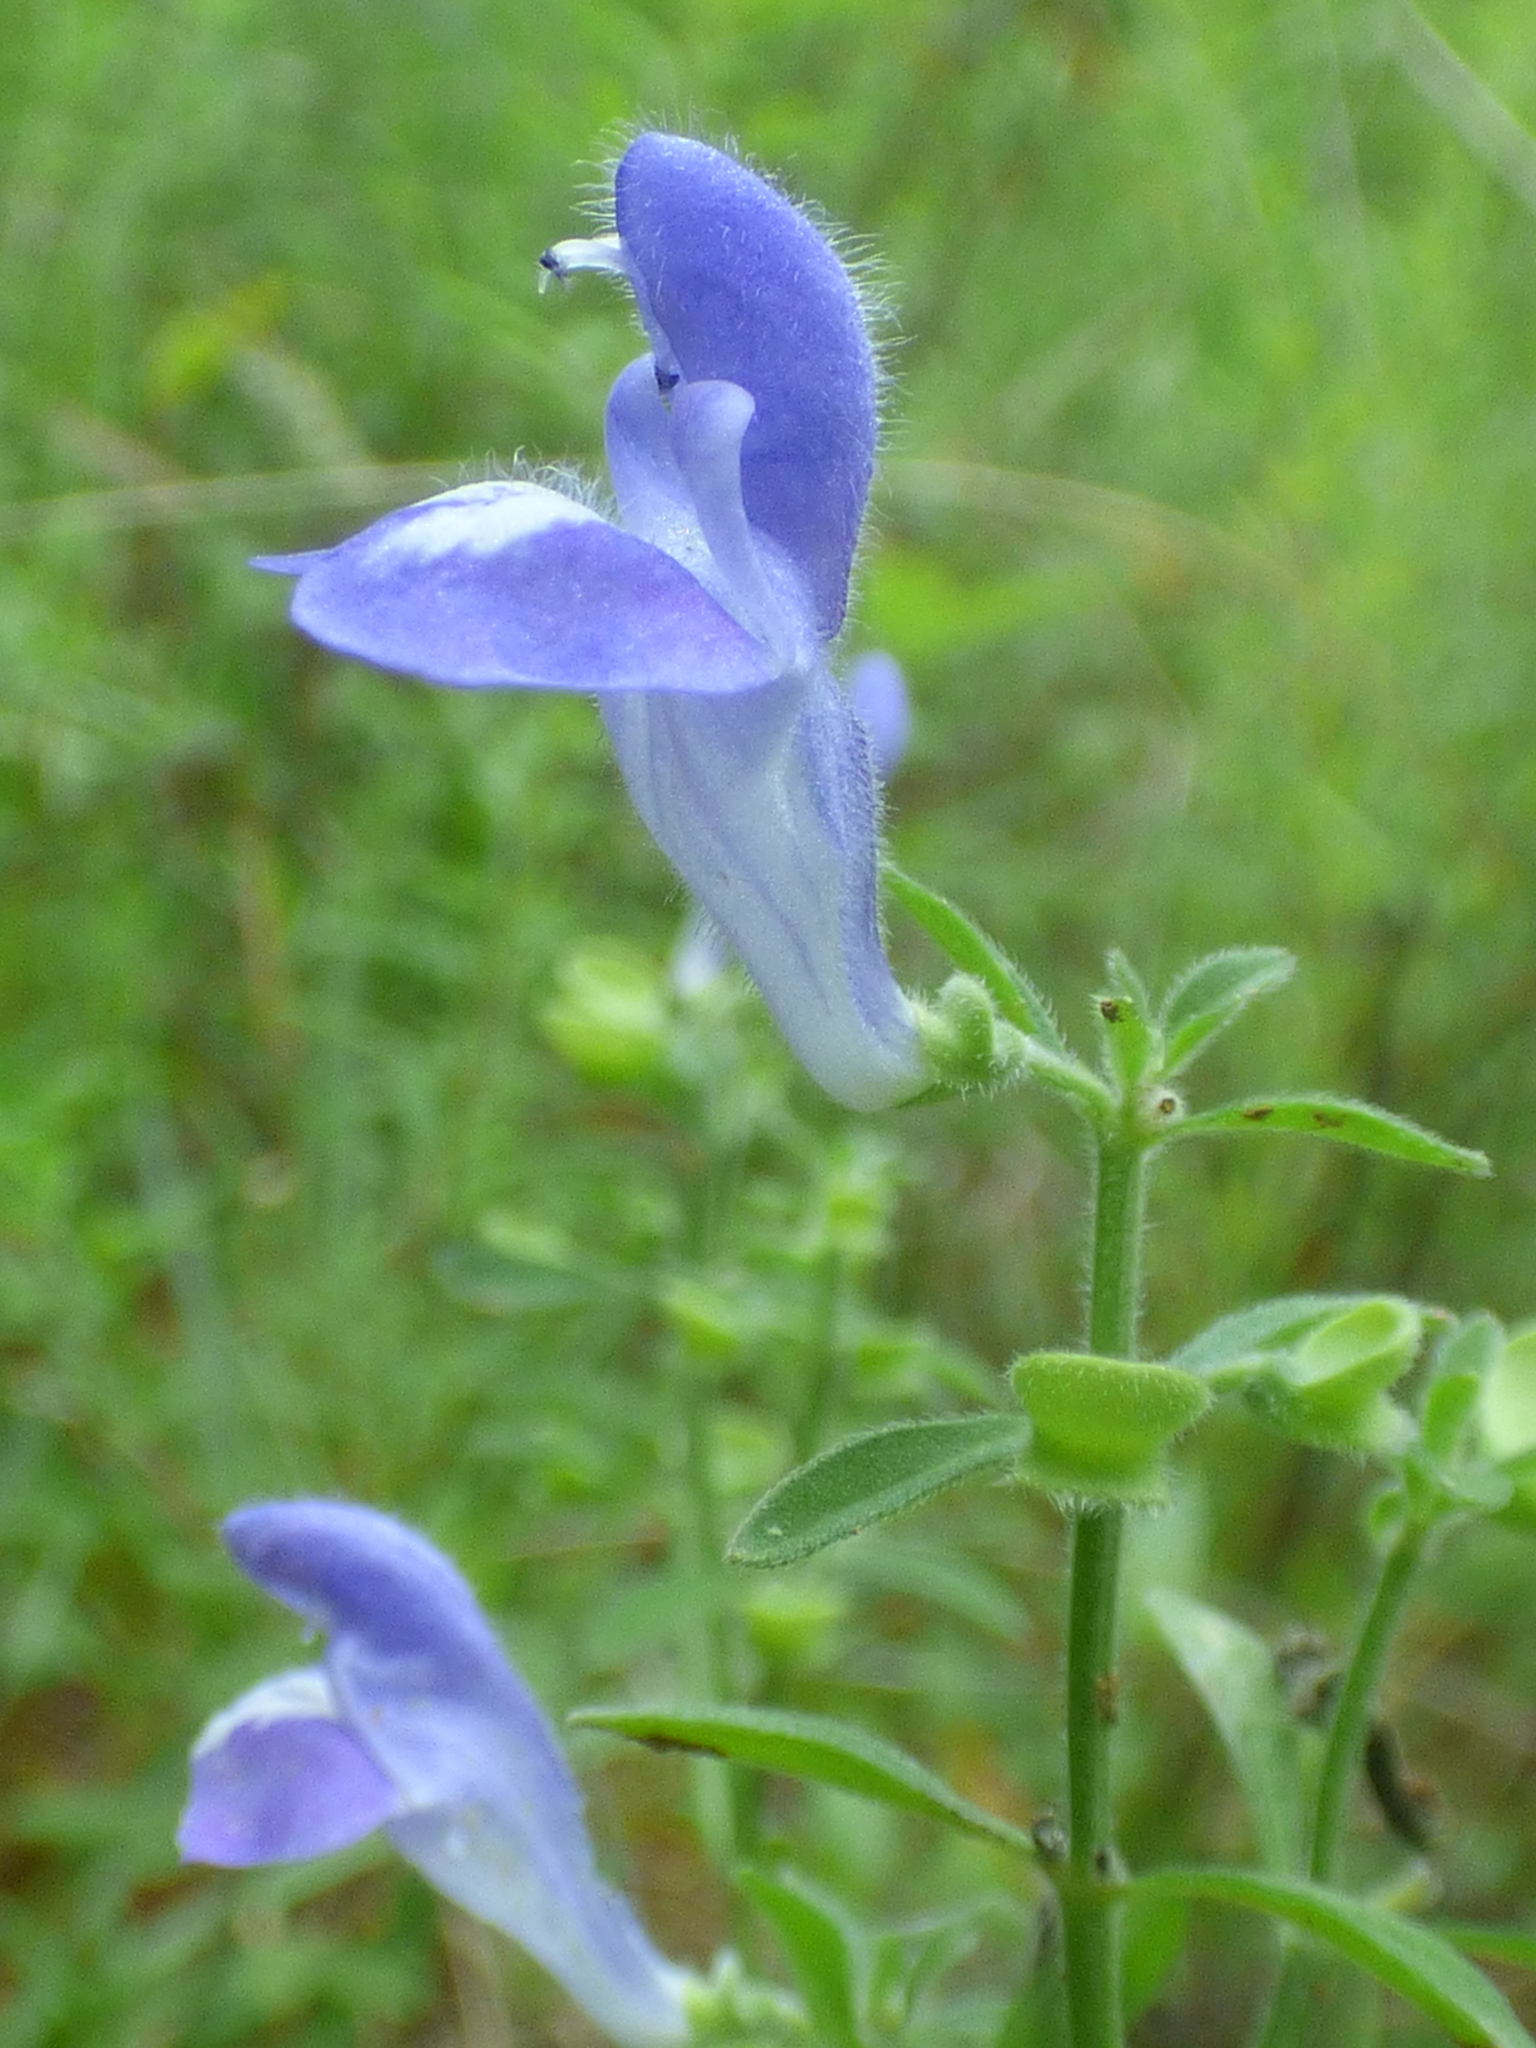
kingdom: Plantae
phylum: Tracheophyta
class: Magnoliopsida
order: Lamiales
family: Lamiaceae
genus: Scutellaria
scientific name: Scutellaria integrifolia
